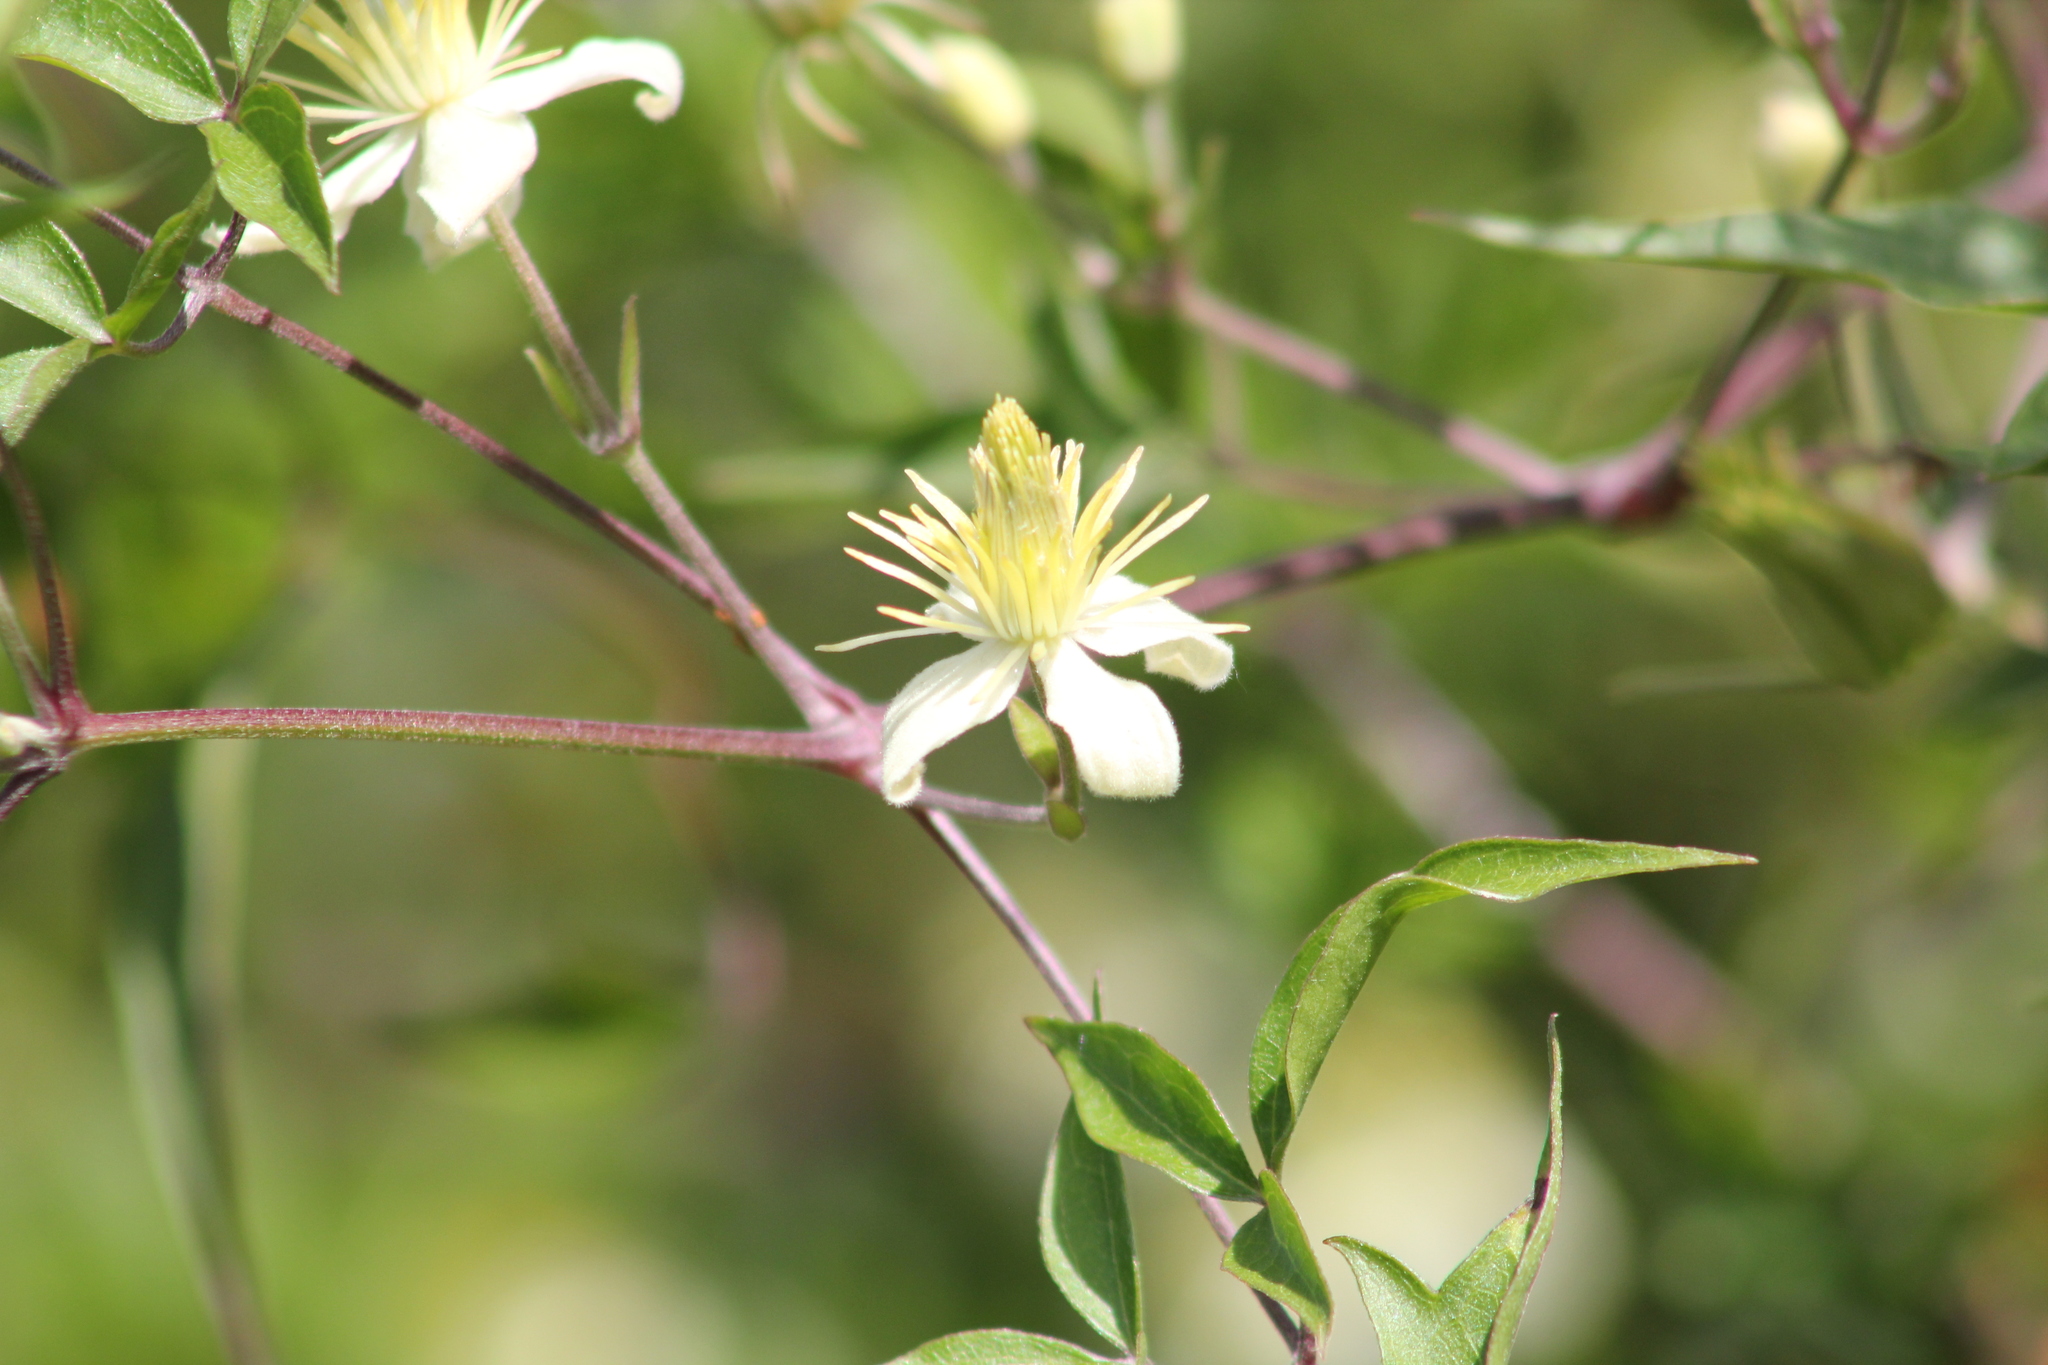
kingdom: Plantae
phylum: Tracheophyta
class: Magnoliopsida
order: Ranunculales
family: Ranunculaceae
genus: Clematis
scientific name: Clematis montevidensis
